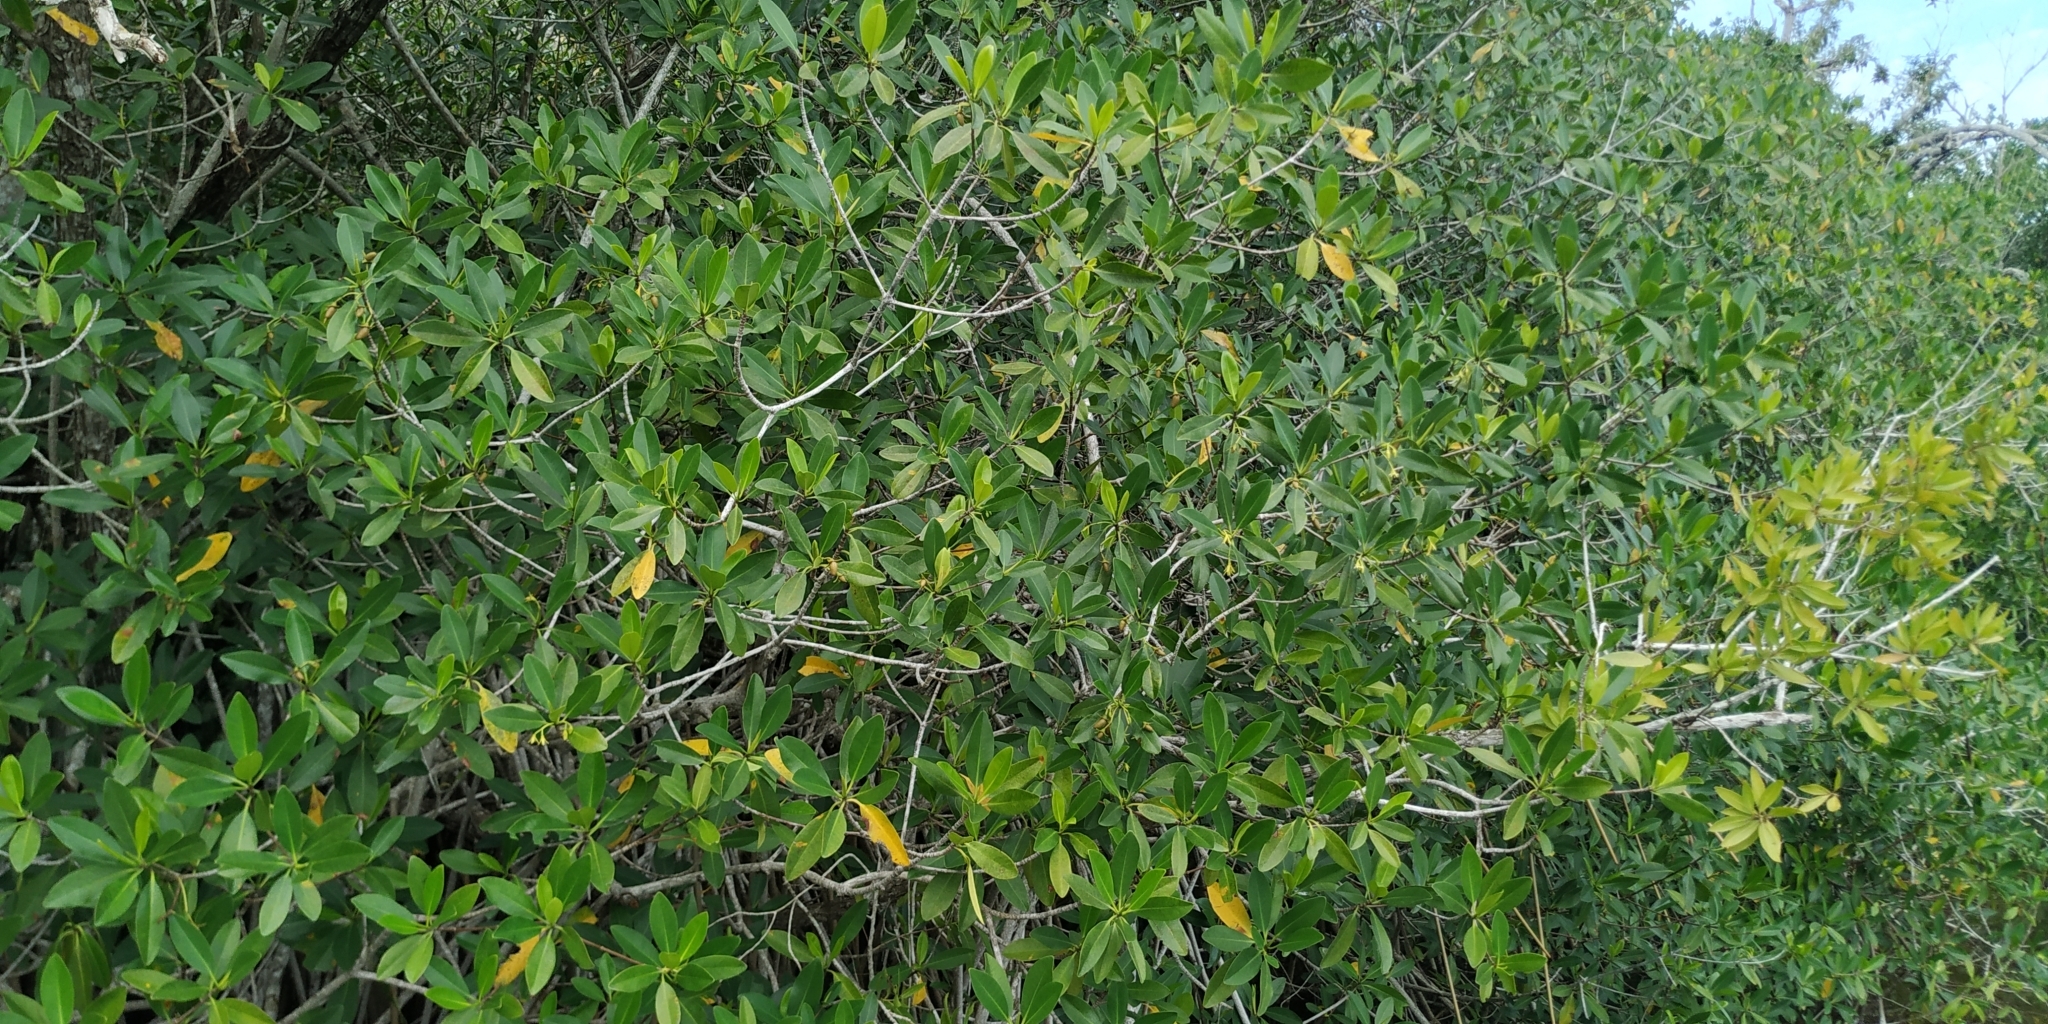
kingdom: Plantae
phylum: Tracheophyta
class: Magnoliopsida
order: Malpighiales
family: Rhizophoraceae
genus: Rhizophora
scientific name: Rhizophora mangle
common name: Red mangrove
